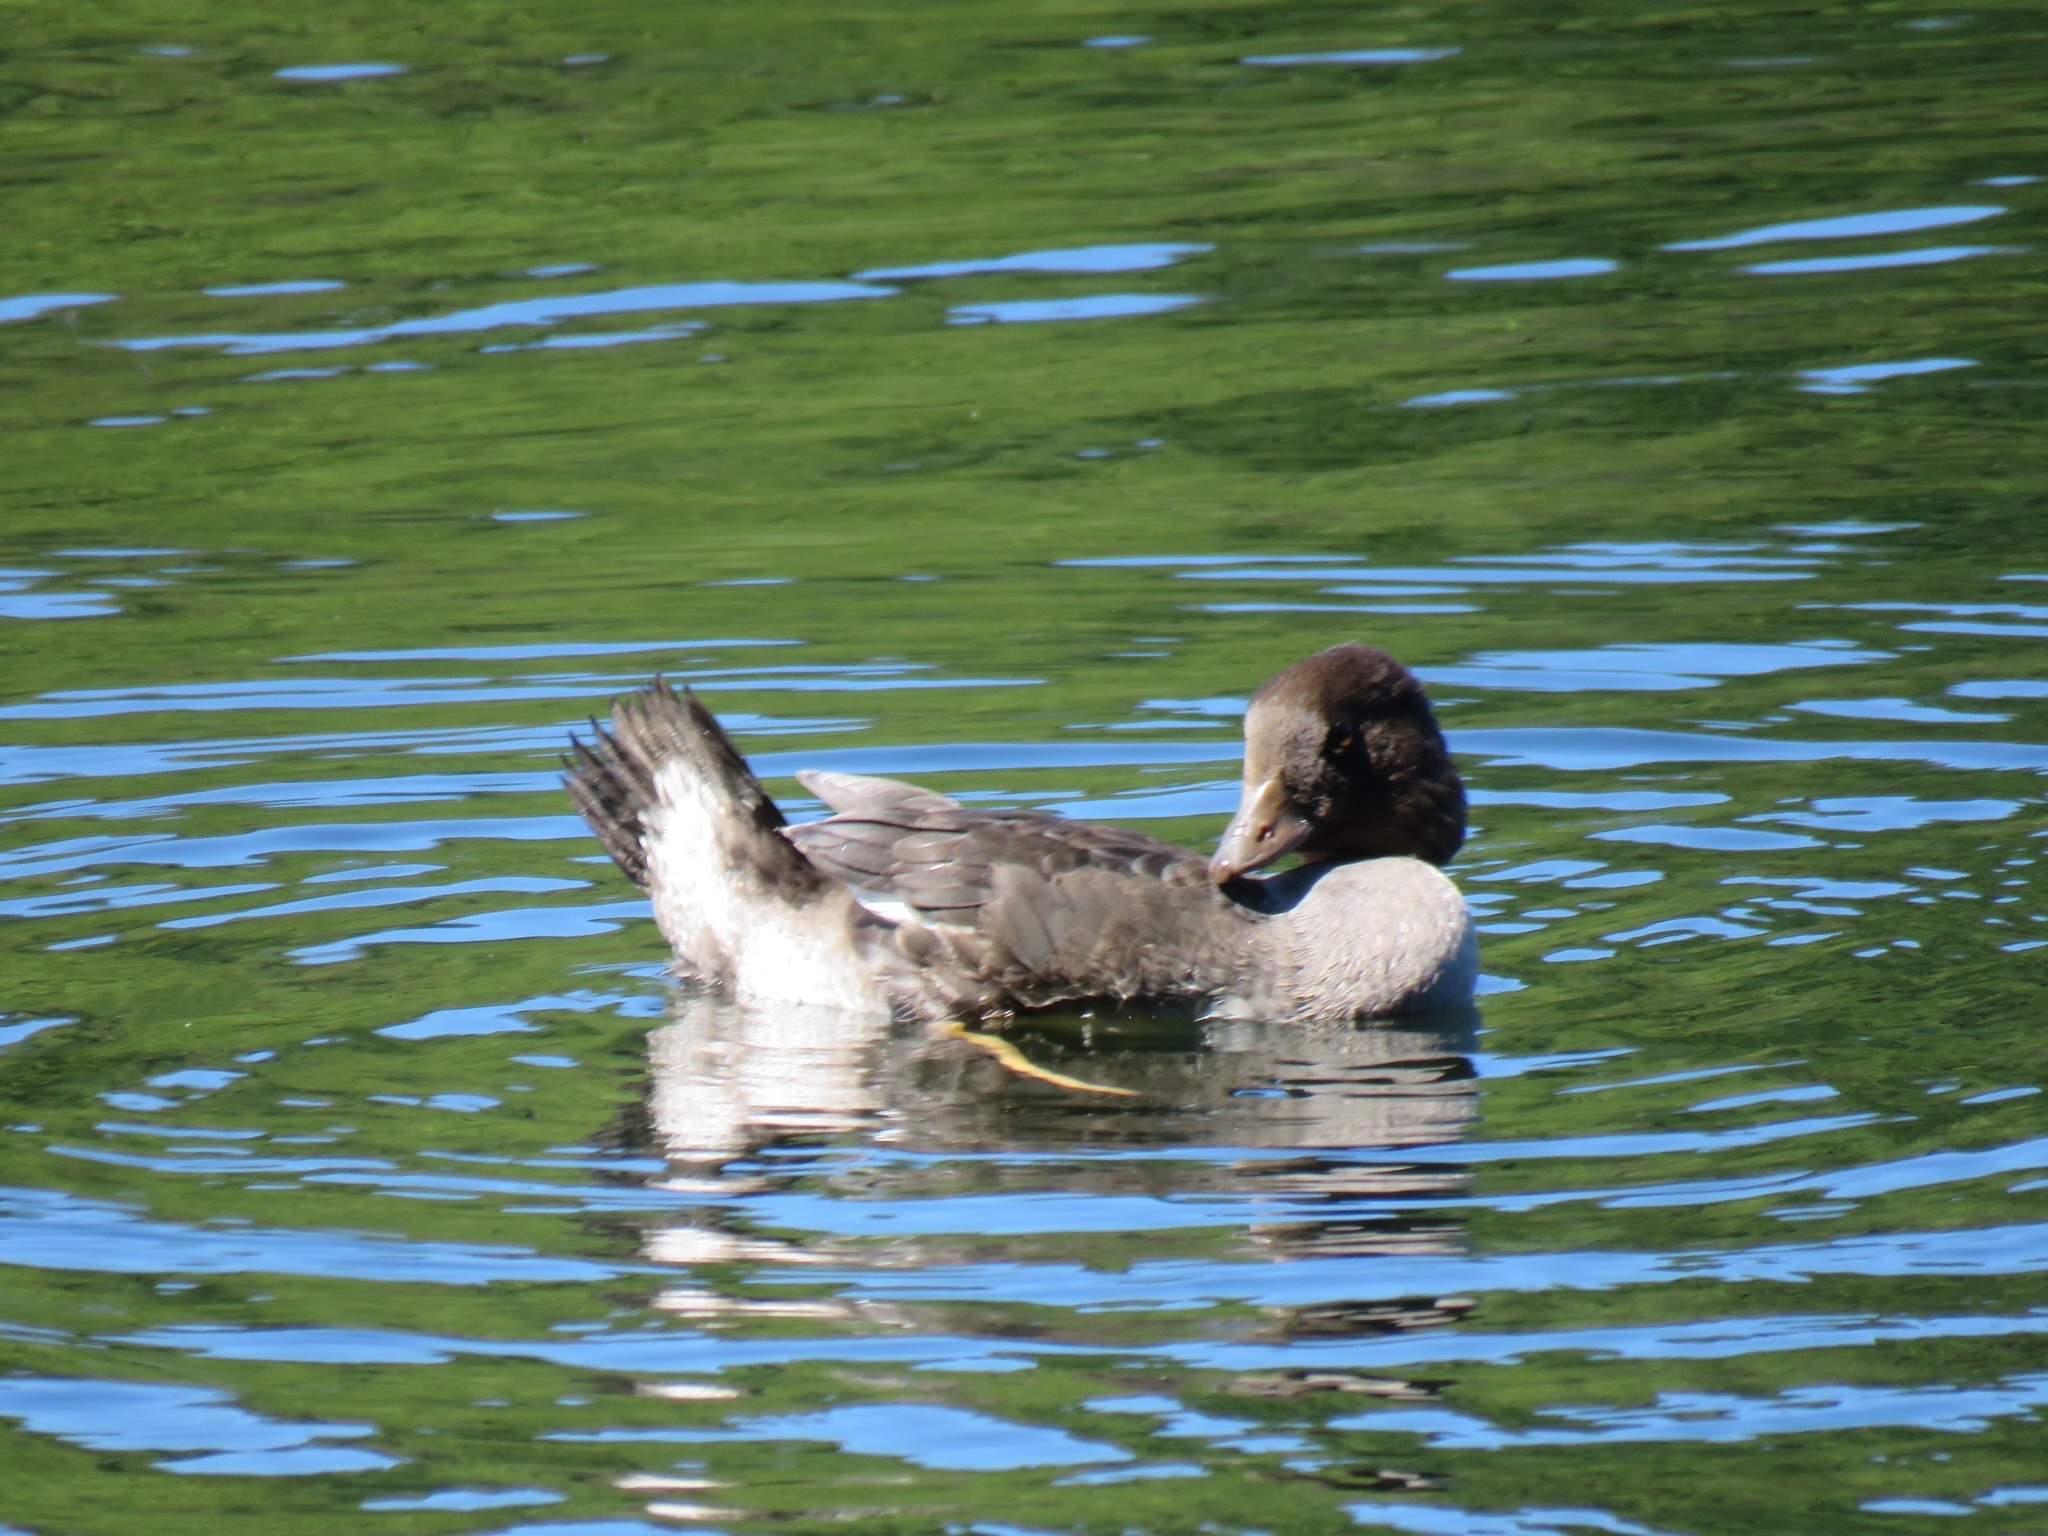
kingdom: Animalia
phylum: Chordata
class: Aves
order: Anseriformes
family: Anatidae
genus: Bucephala
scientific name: Bucephala islandica
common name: Barrow's goldeneye
